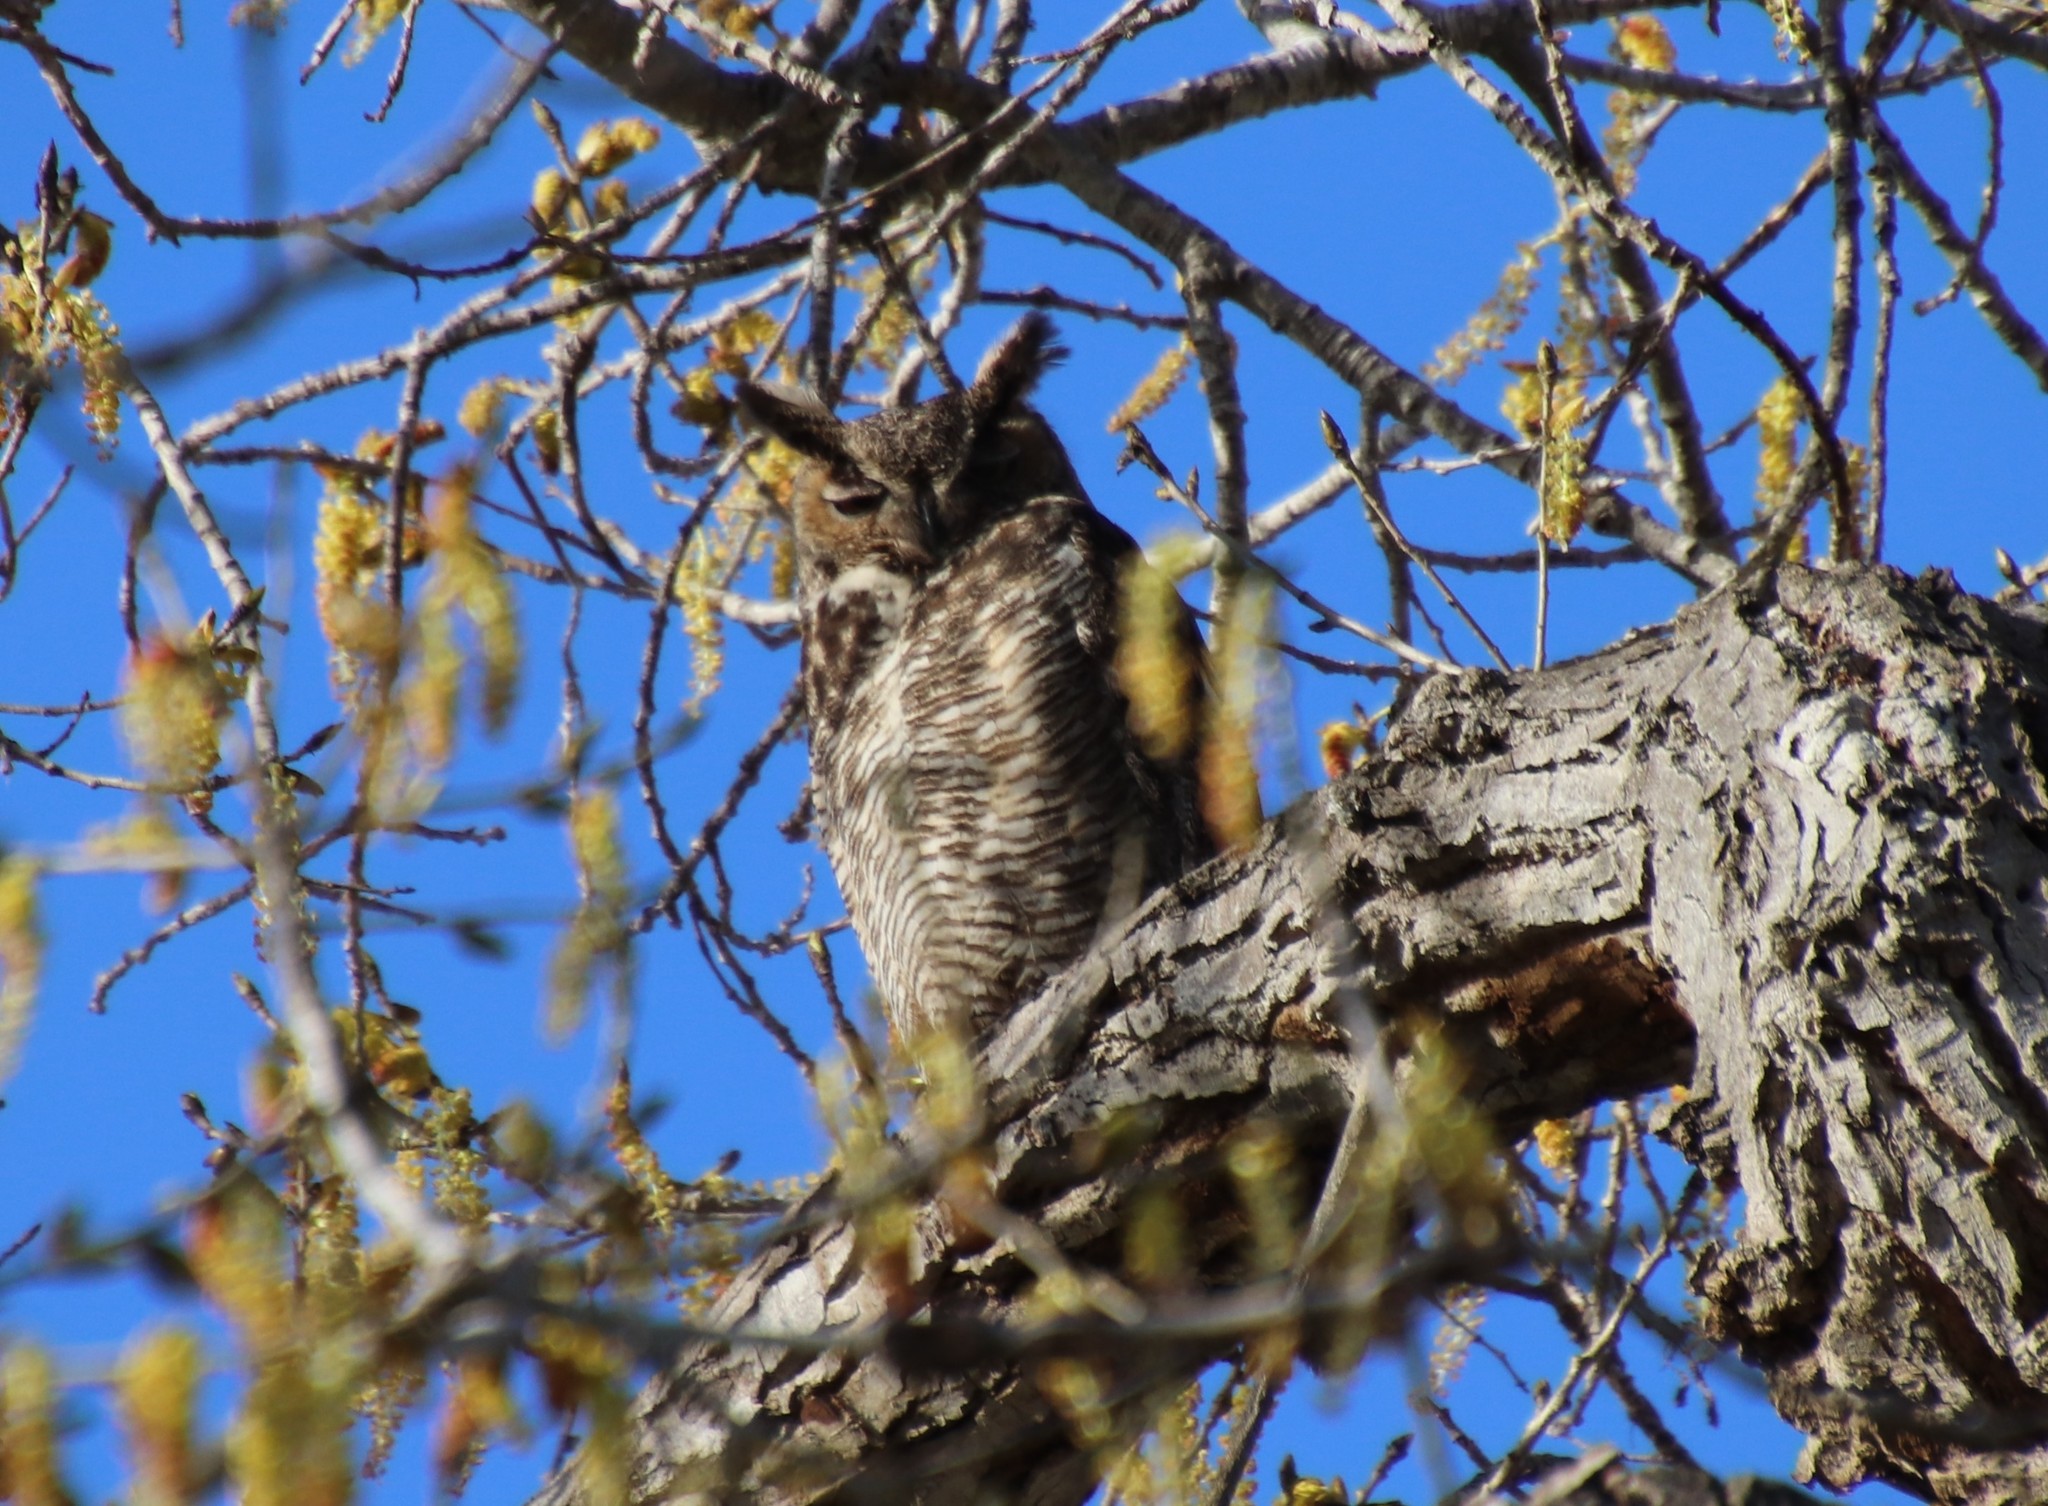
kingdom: Animalia
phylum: Chordata
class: Aves
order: Strigiformes
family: Strigidae
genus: Bubo
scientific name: Bubo virginianus
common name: Great horned owl
